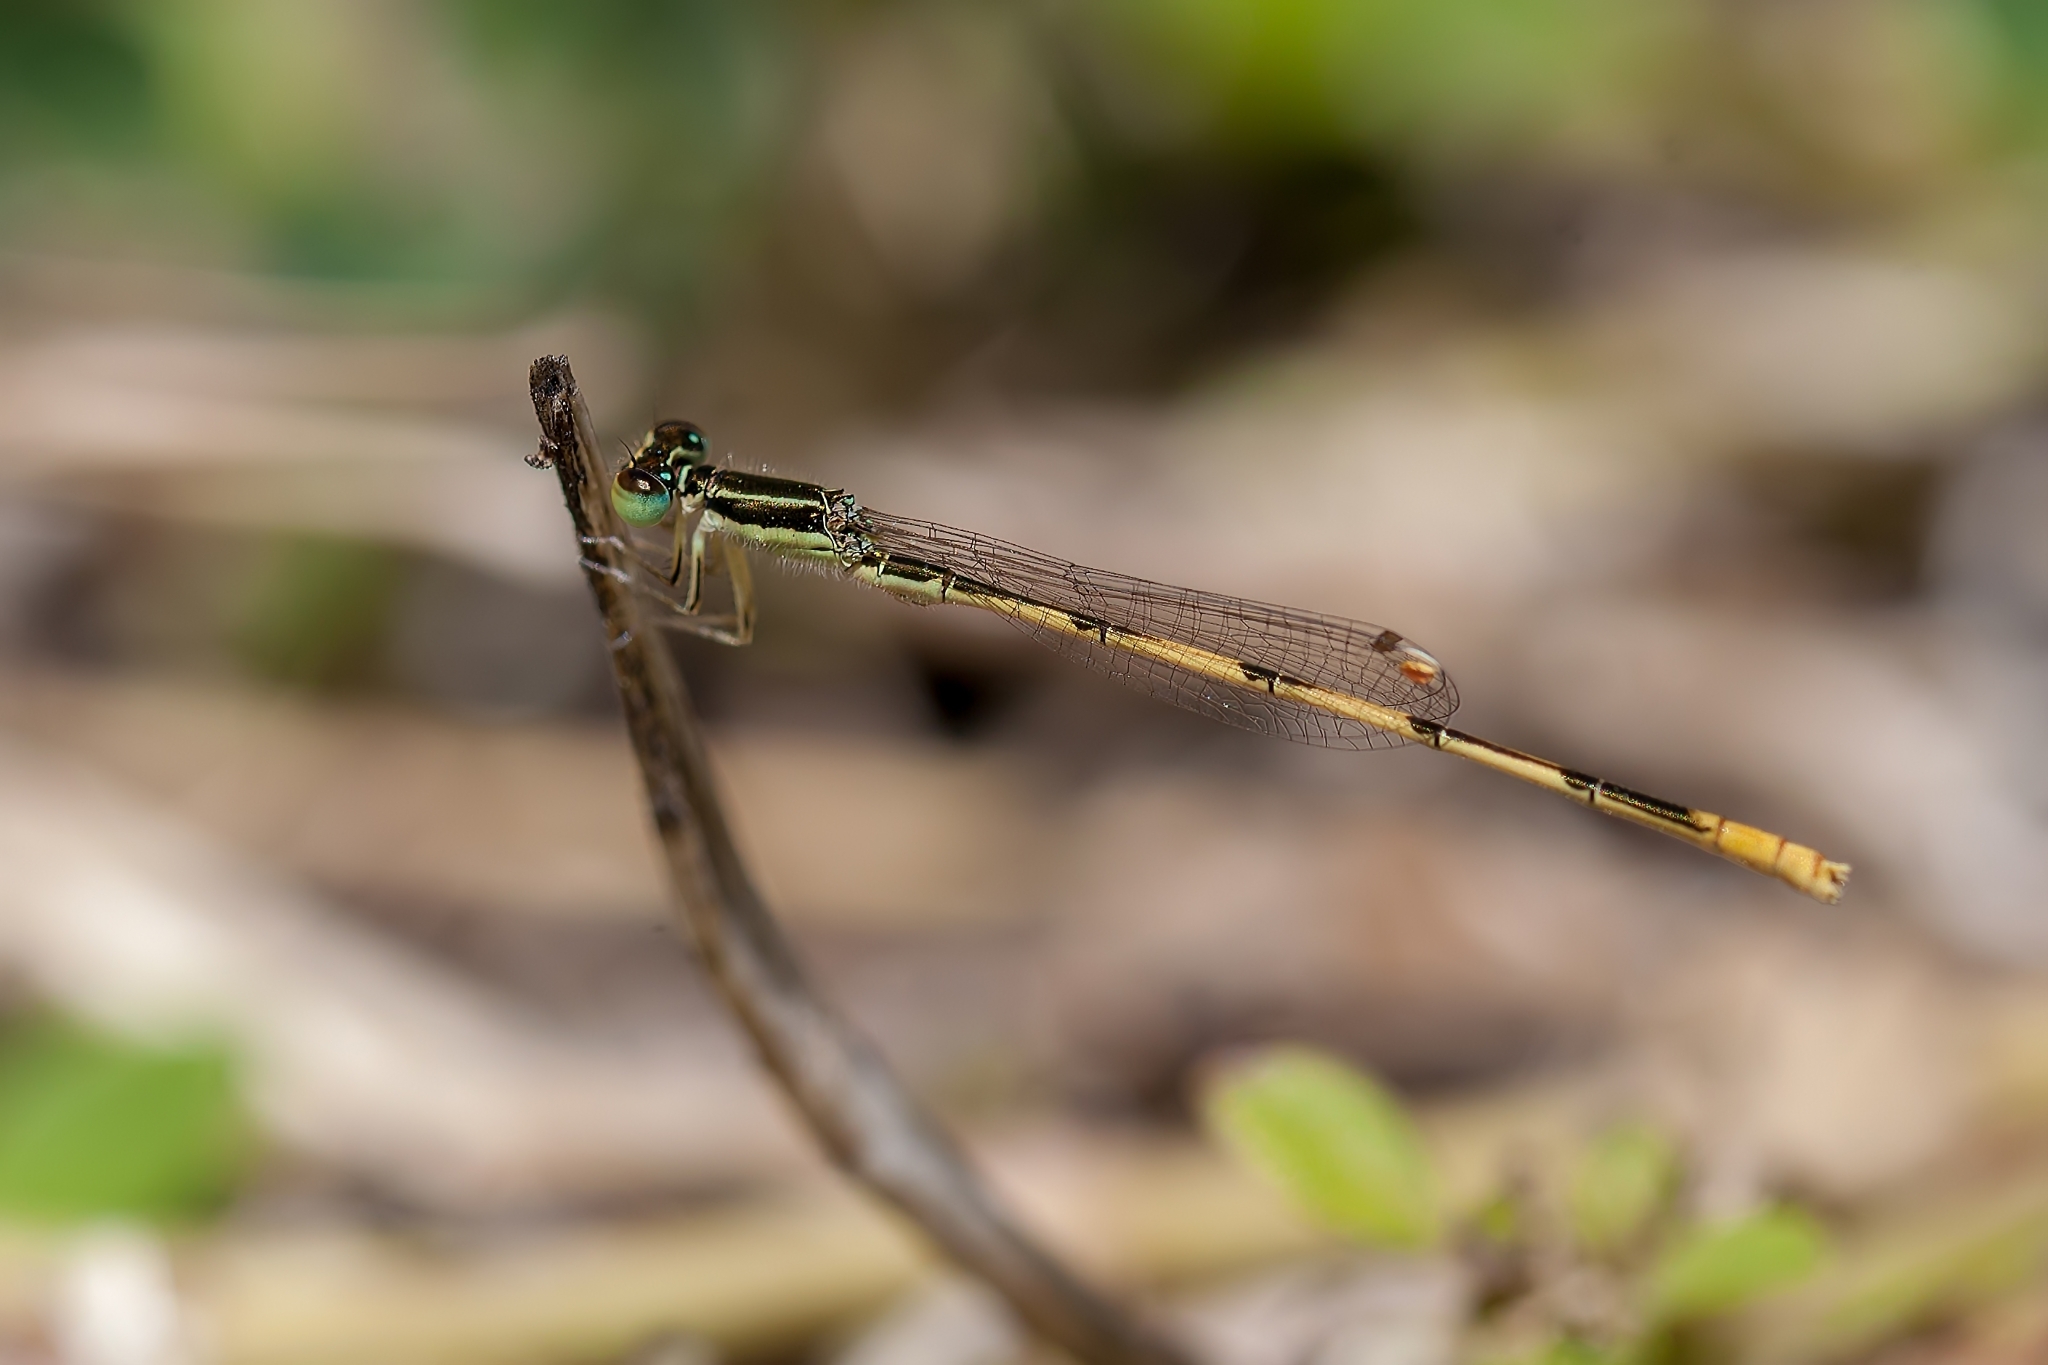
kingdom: Animalia
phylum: Arthropoda
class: Insecta
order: Odonata
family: Coenagrionidae
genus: Ischnura
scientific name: Ischnura hastata
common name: Citrine forktail
